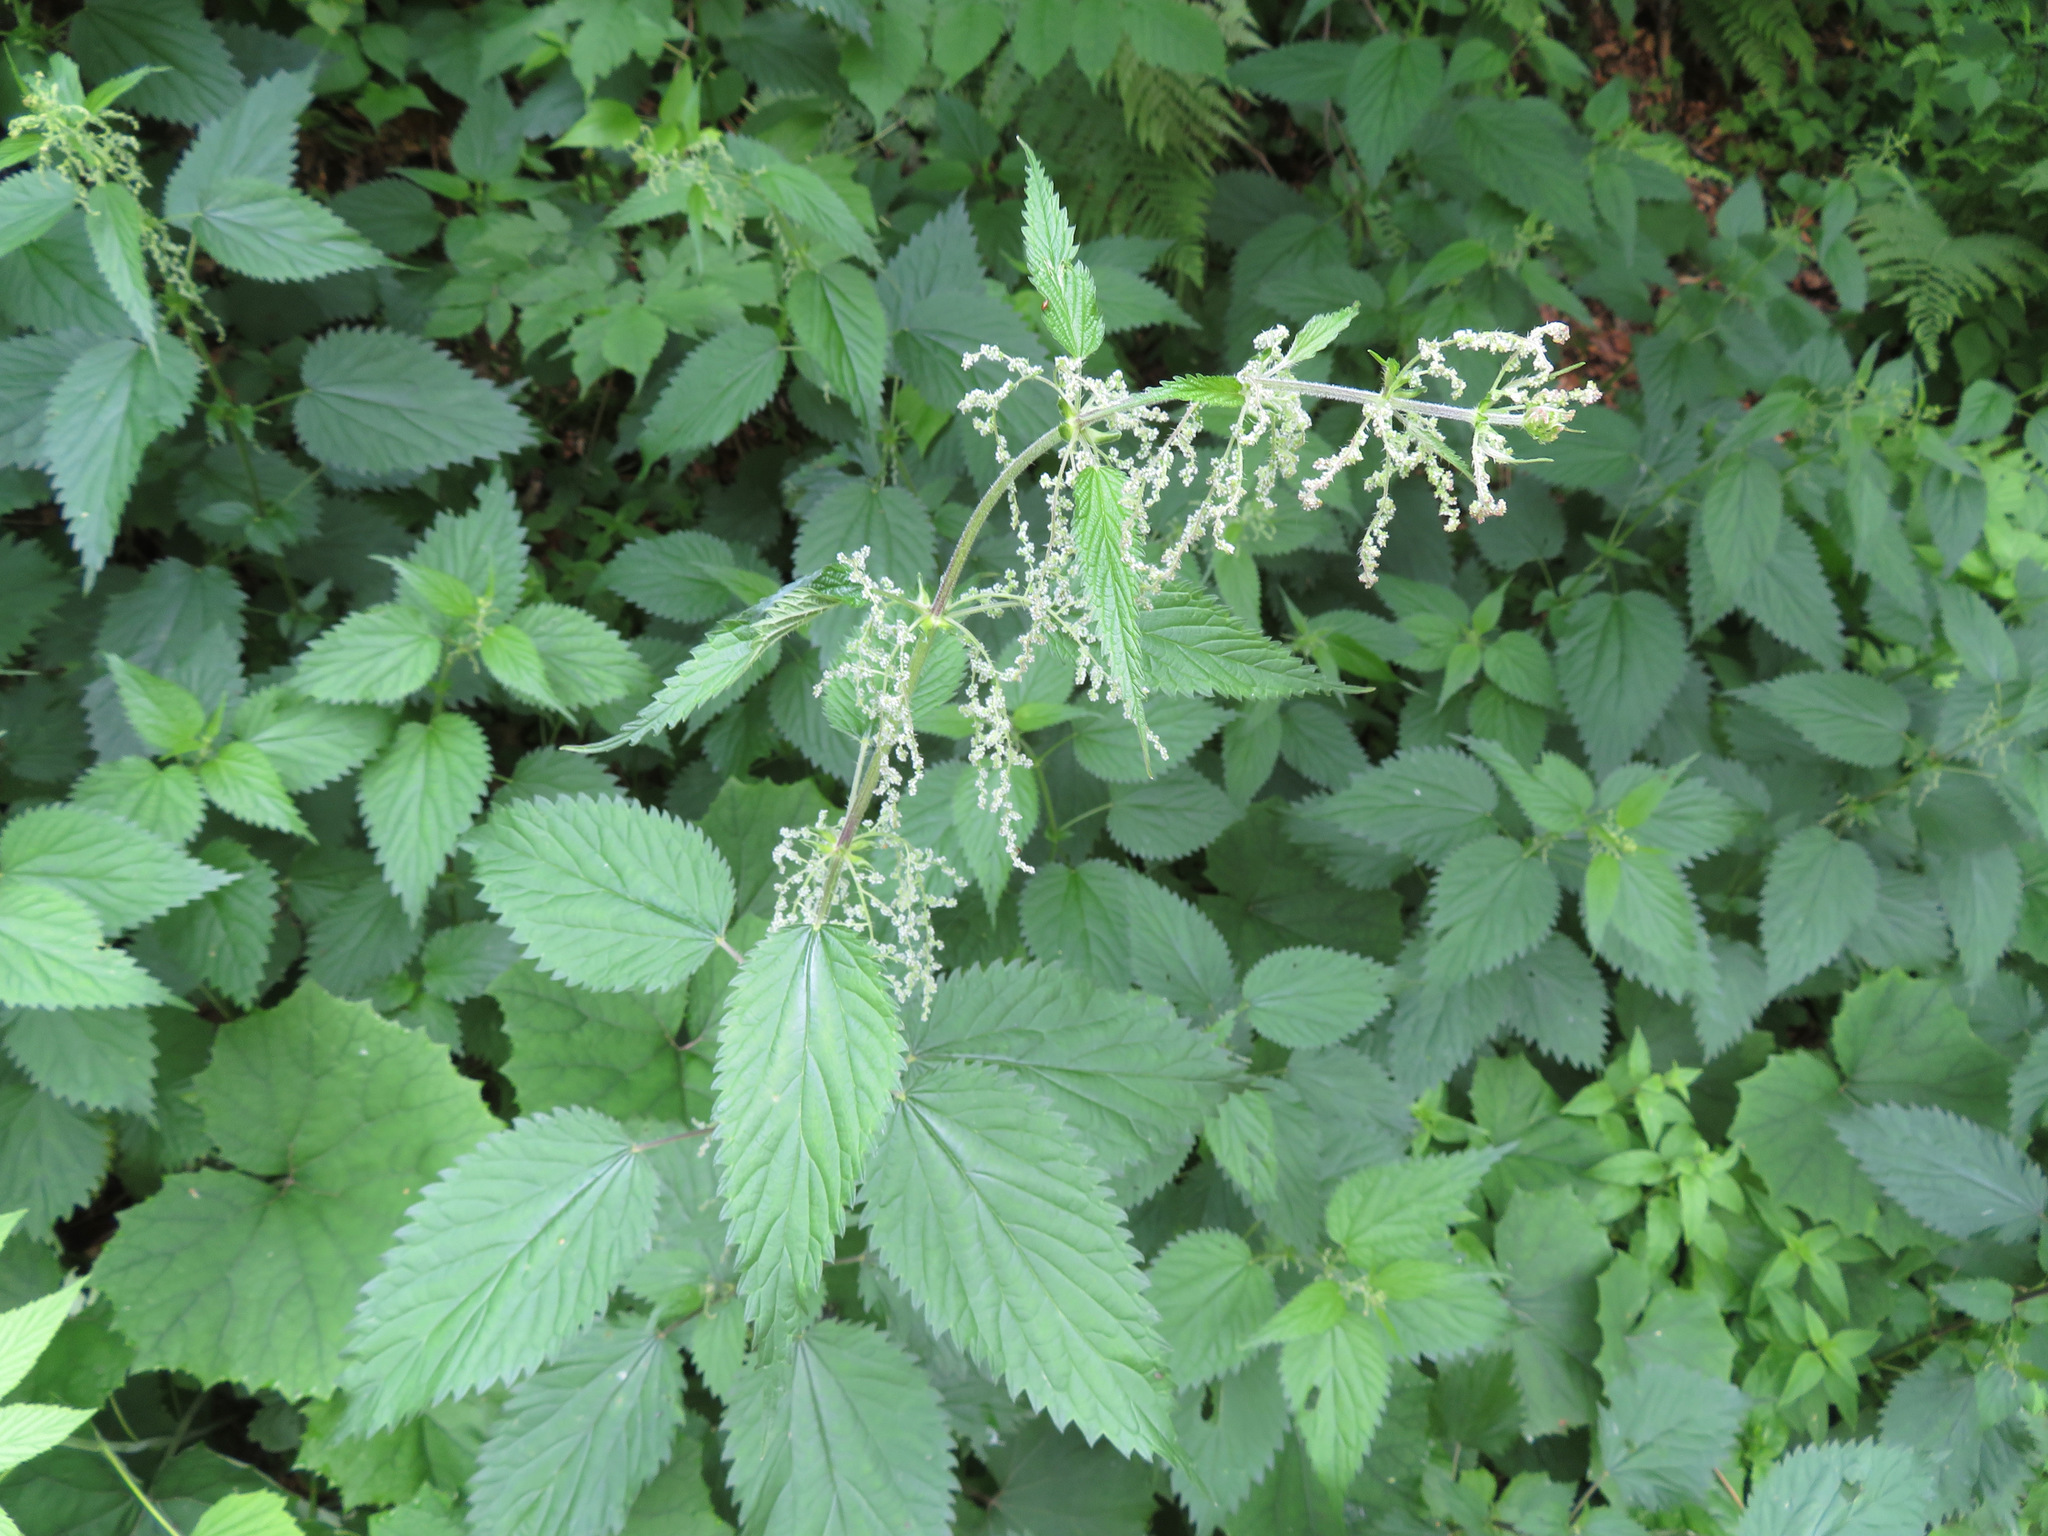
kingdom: Plantae
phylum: Tracheophyta
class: Magnoliopsida
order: Rosales
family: Urticaceae
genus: Urtica
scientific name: Urtica dioica
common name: Common nettle
